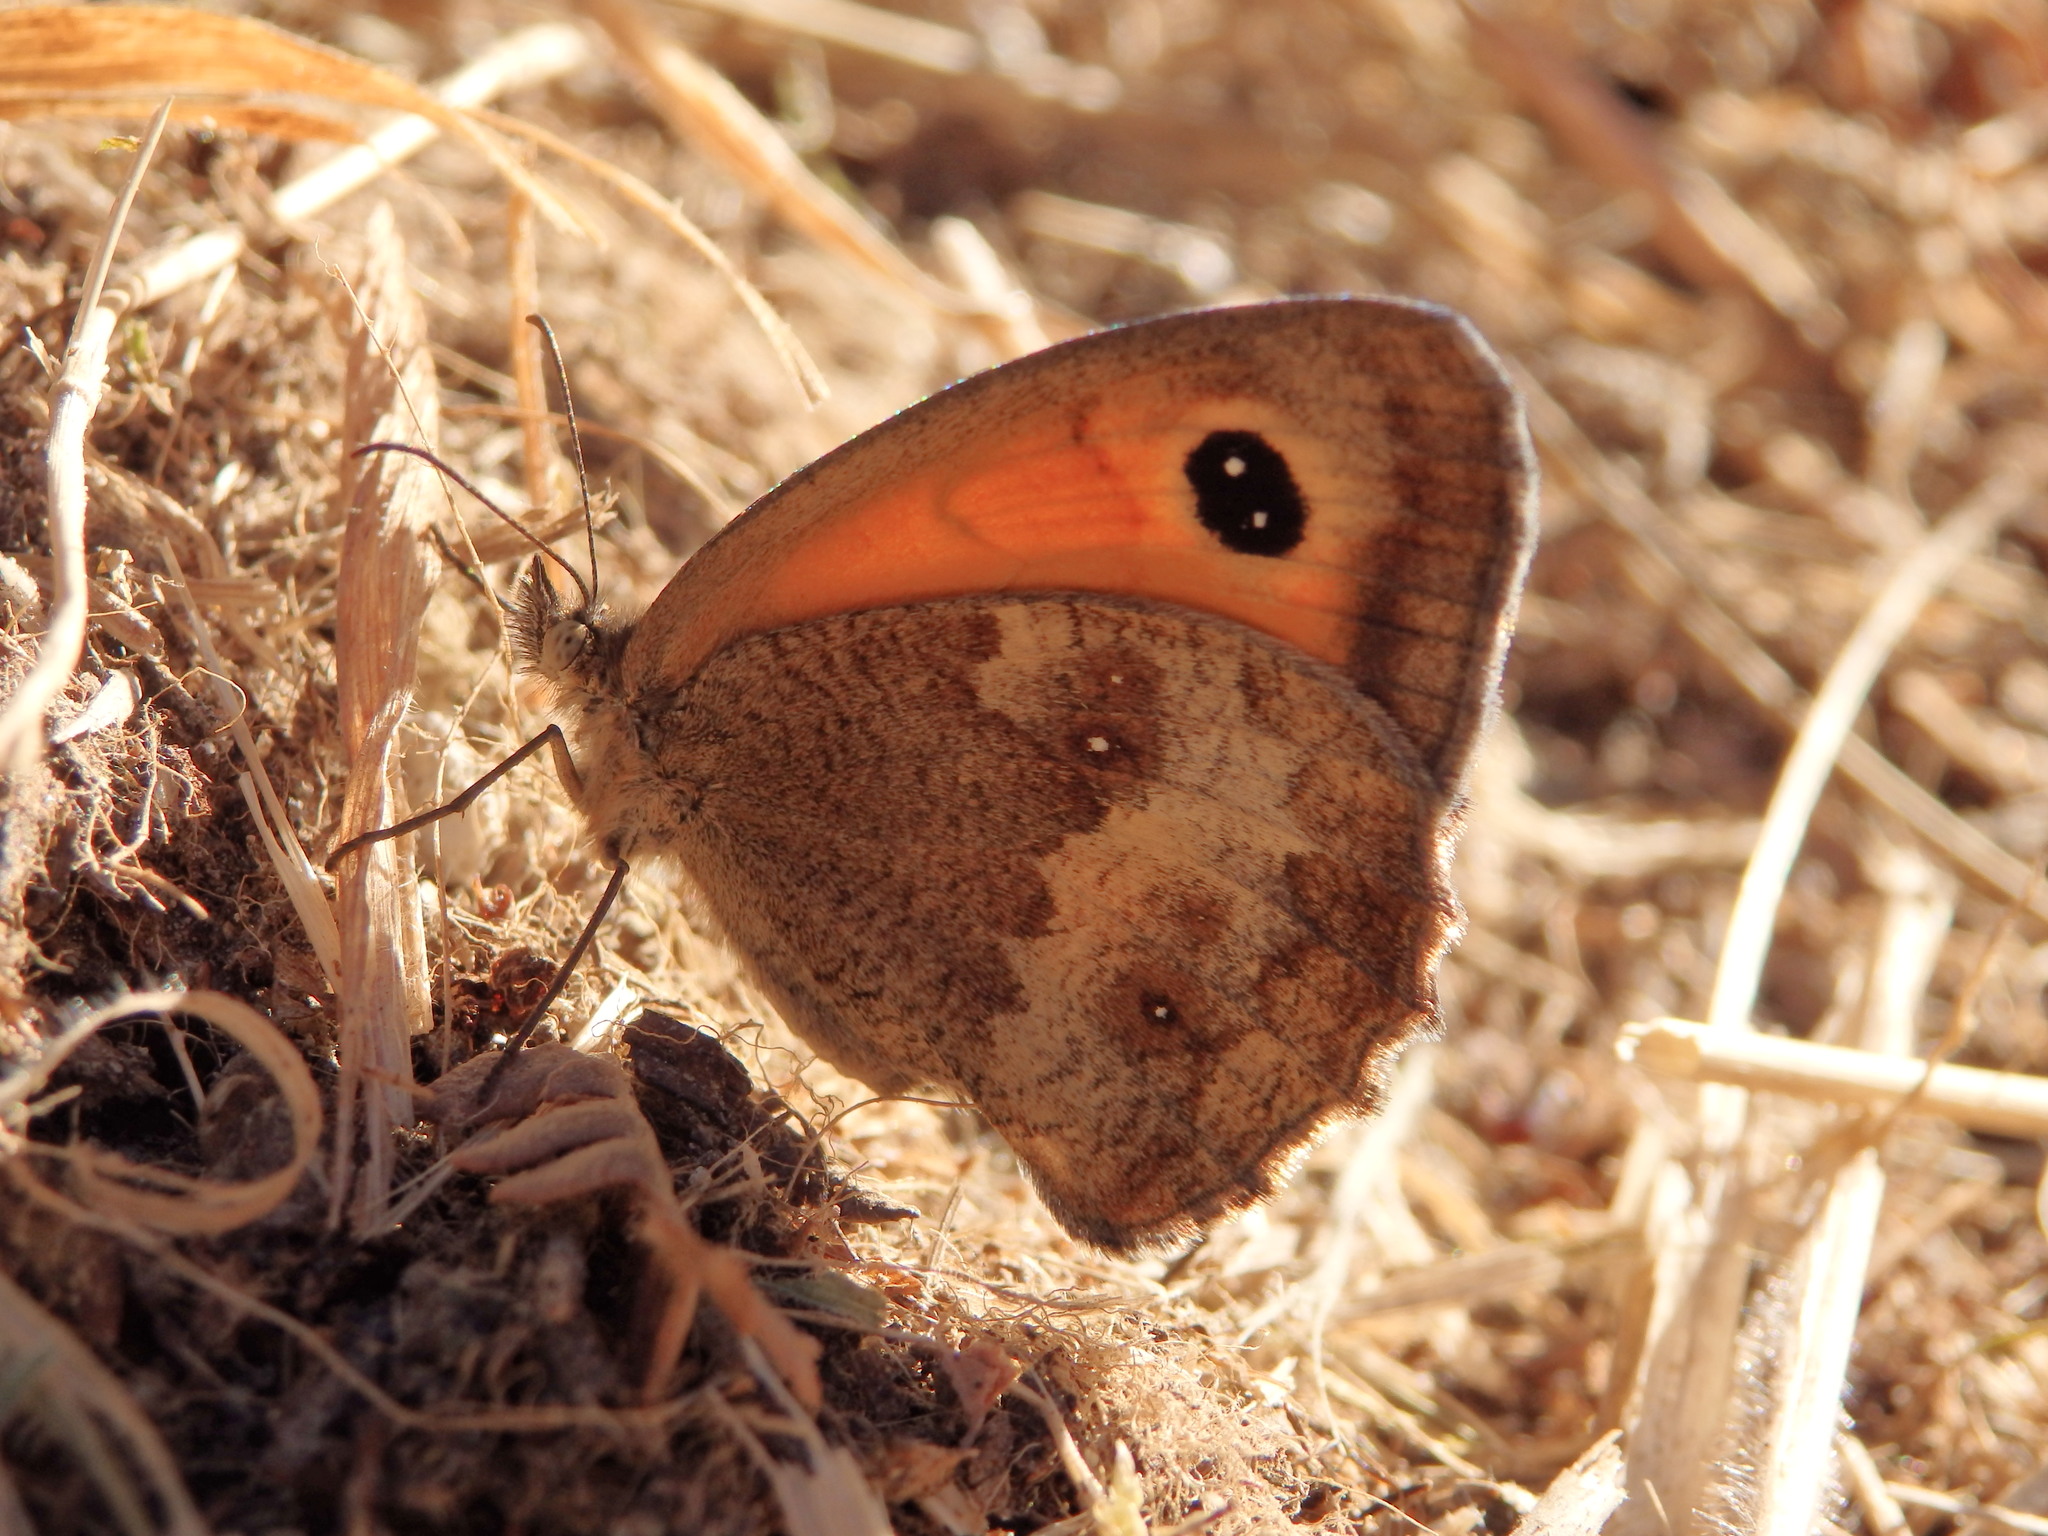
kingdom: Animalia
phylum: Arthropoda
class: Insecta
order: Lepidoptera
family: Nymphalidae
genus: Pyronia
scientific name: Pyronia tithonus
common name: Gatekeeper
